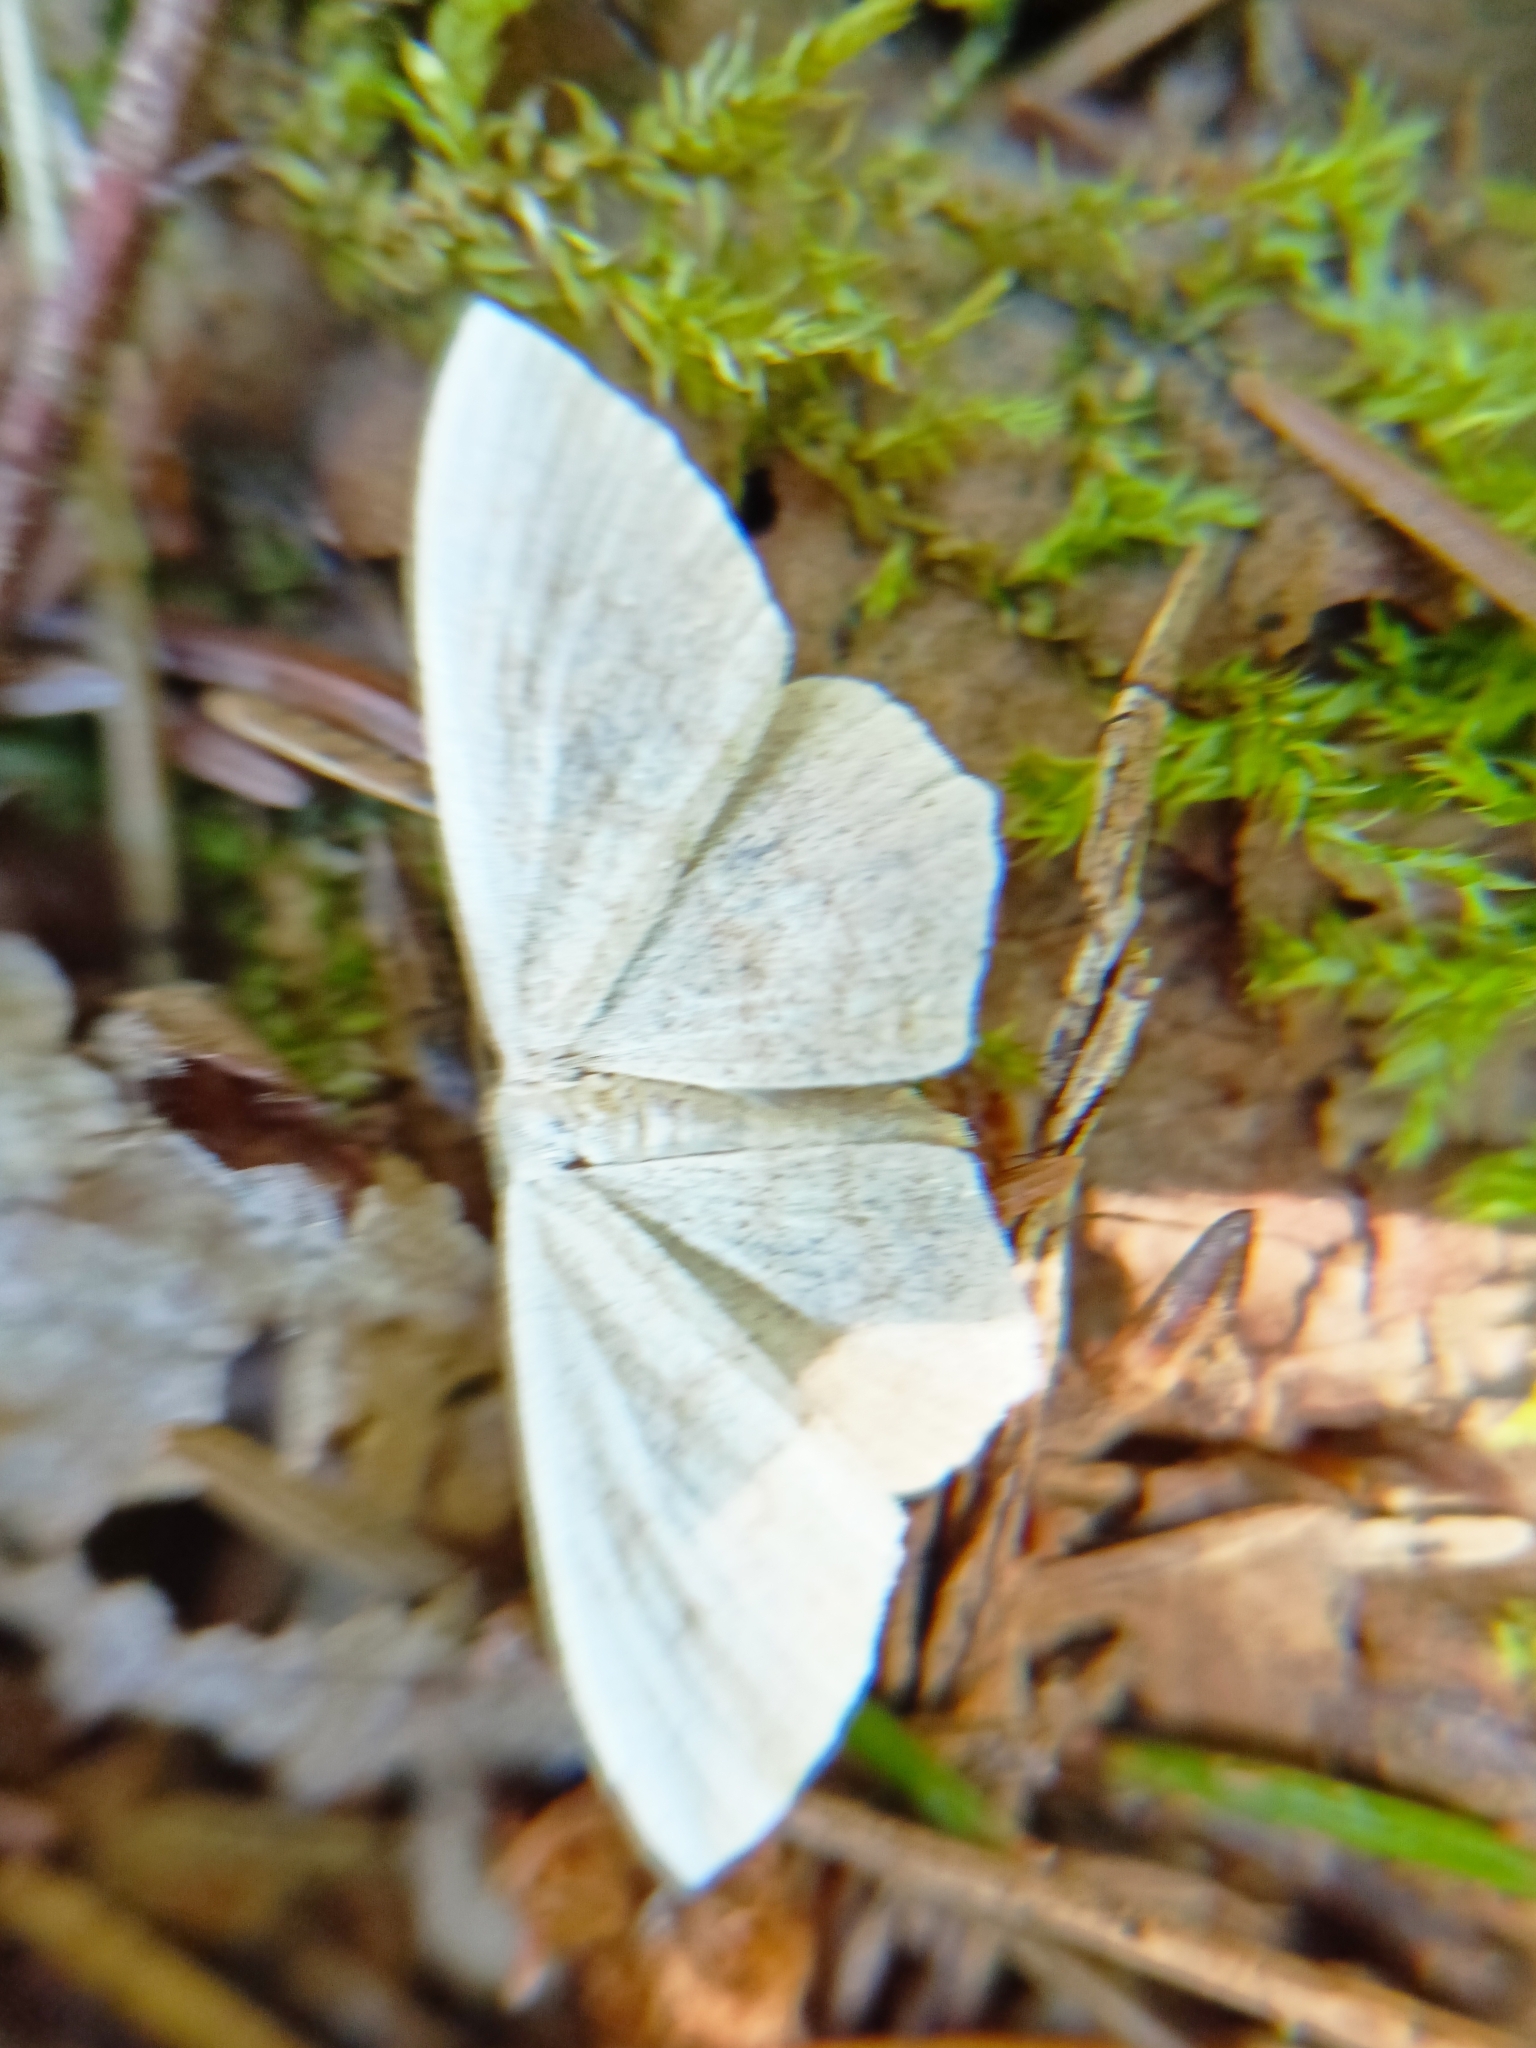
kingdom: Animalia
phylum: Arthropoda
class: Insecta
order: Lepidoptera
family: Geometridae
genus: Scopula
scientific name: Scopula floslactata
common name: Cream wave
